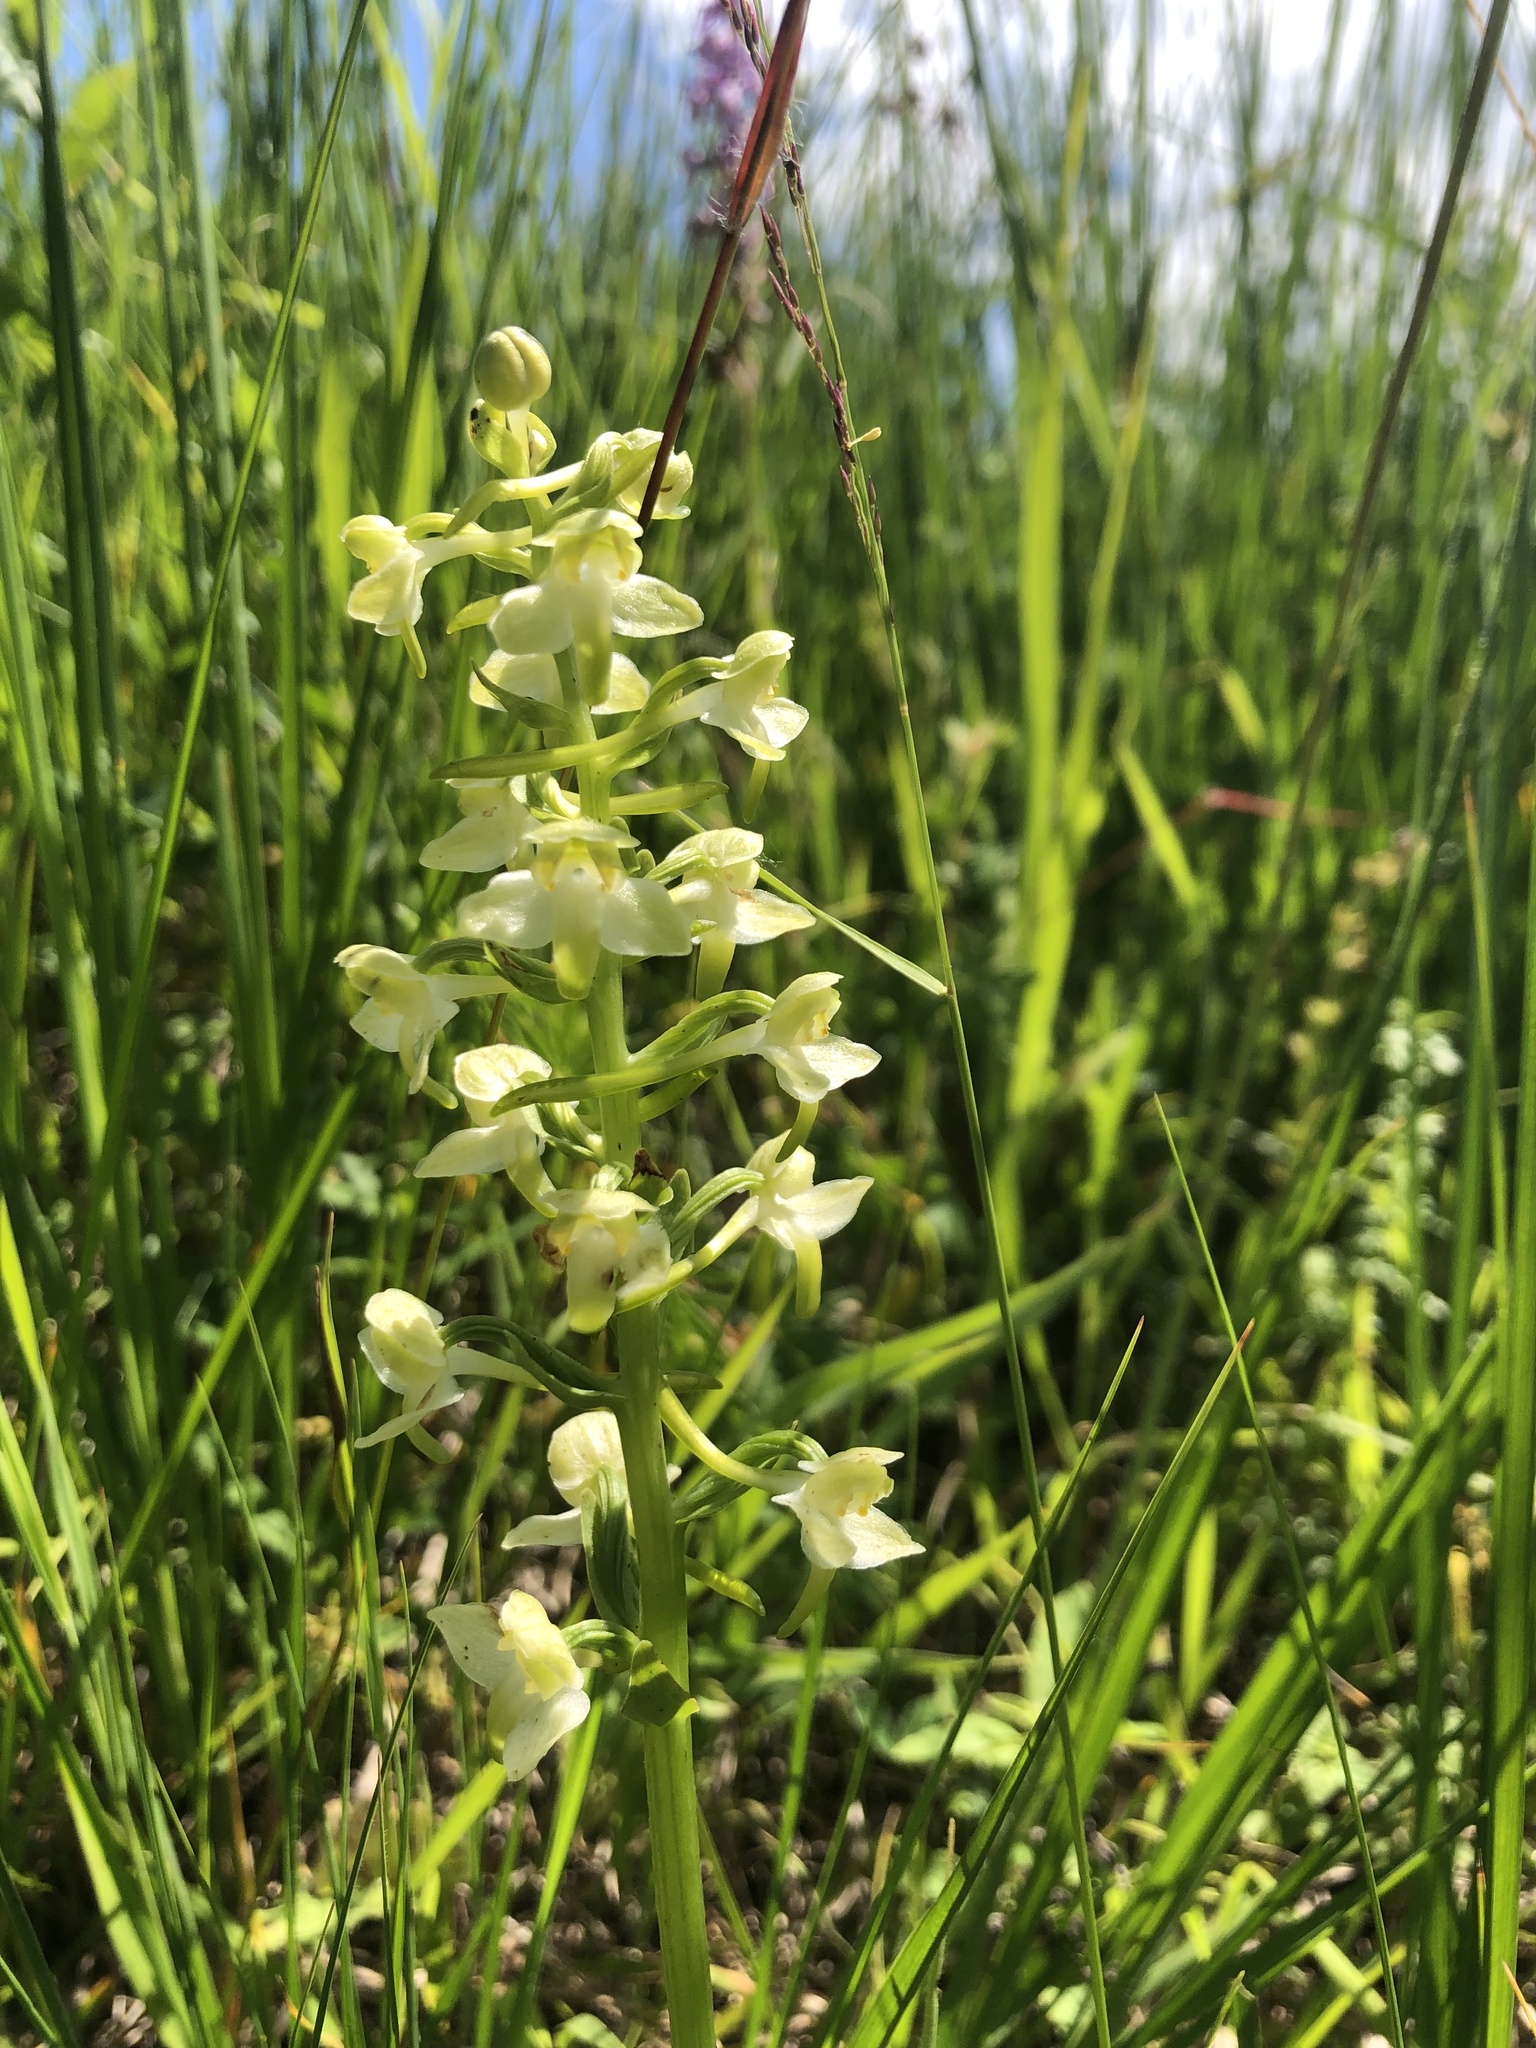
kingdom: Plantae
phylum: Tracheophyta
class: Liliopsida
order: Asparagales
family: Orchidaceae
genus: Platanthera
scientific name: Platanthera chlorantha
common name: Greater butterfly-orchid
